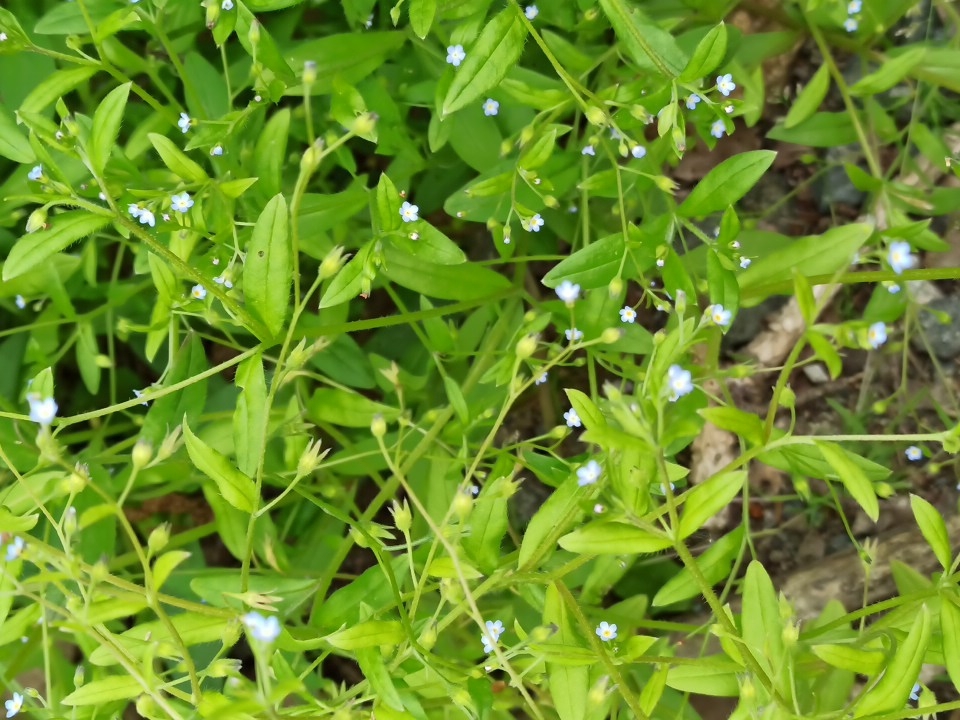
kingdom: Plantae
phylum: Tracheophyta
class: Magnoliopsida
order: Boraginales
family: Boraginaceae
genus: Myosotis
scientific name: Myosotis sparsiflora
